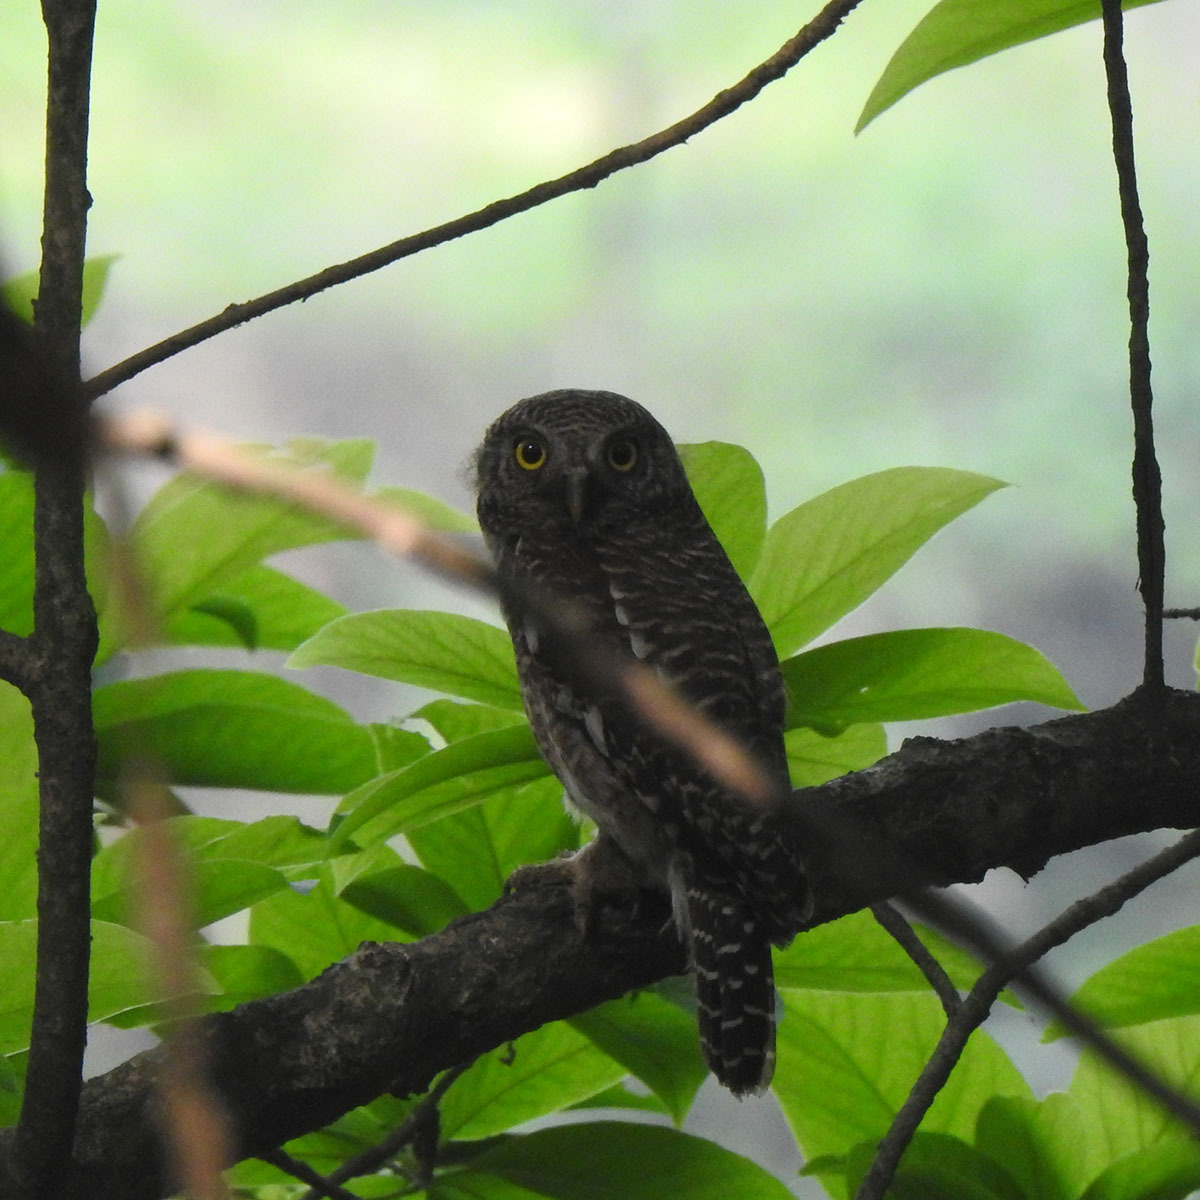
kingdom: Animalia
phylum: Chordata
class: Aves
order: Strigiformes
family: Strigidae
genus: Glaucidium
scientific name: Glaucidium cuculoides
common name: Asian barred owlet
